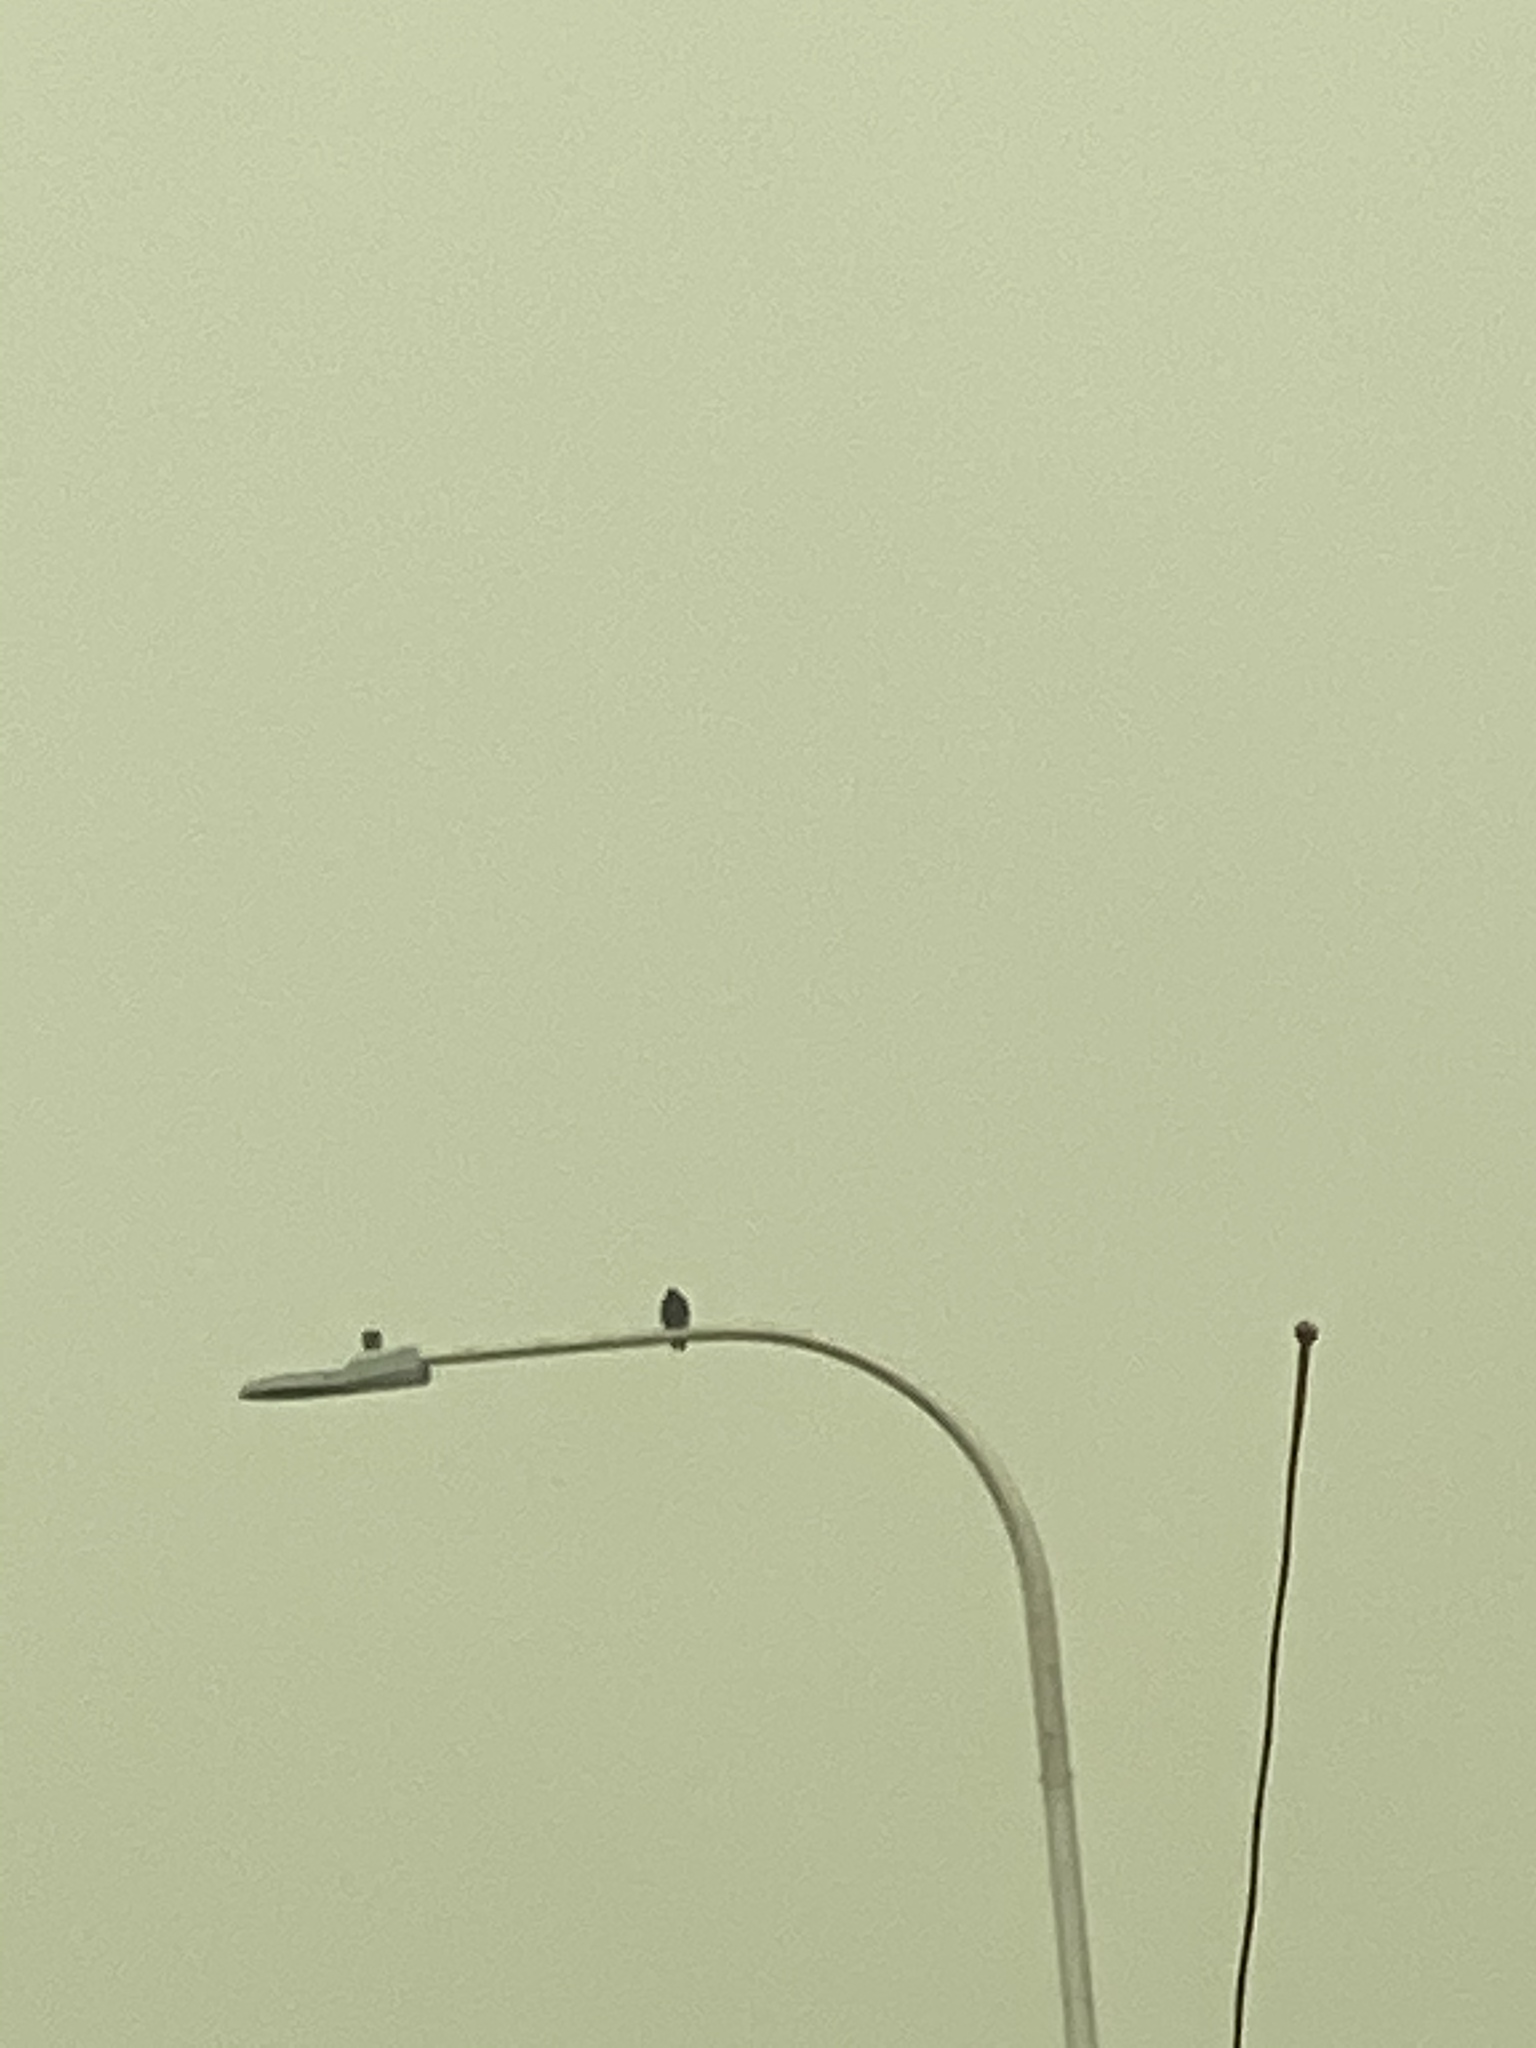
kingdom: Animalia
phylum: Chordata
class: Aves
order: Passeriformes
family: Corvidae
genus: Corvus
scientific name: Corvus brachyrhynchos
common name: American crow
